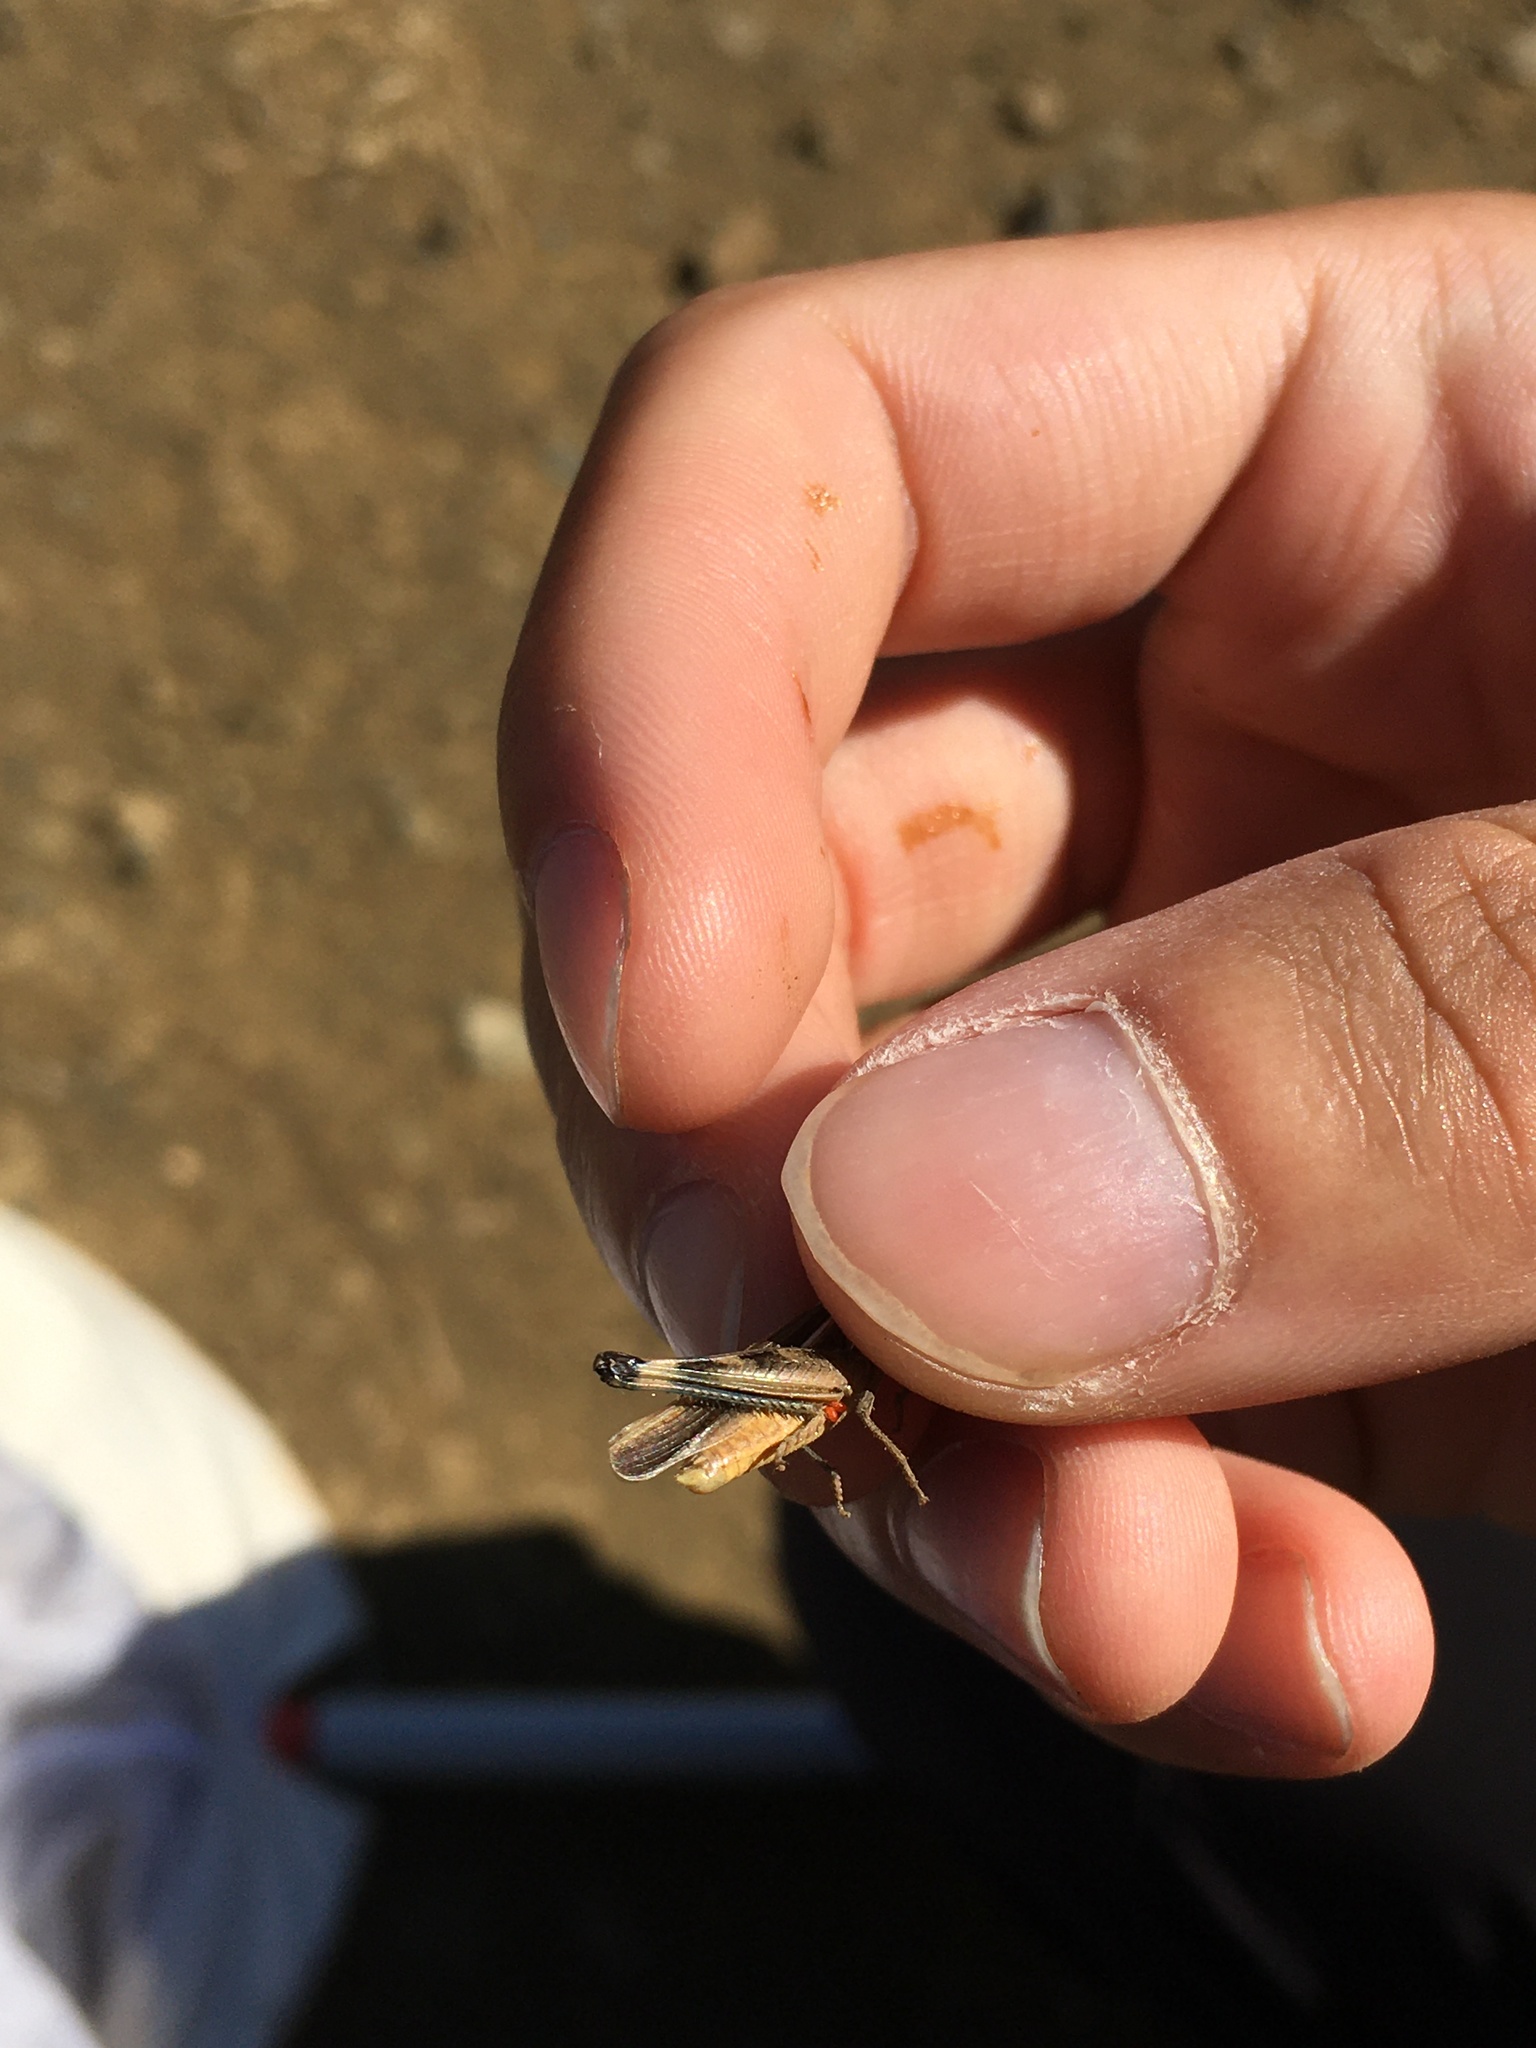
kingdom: Animalia
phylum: Arthropoda
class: Insecta
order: Orthoptera
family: Acrididae
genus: Amphitornus
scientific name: Amphitornus coloradus
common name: Striped grasshopper
